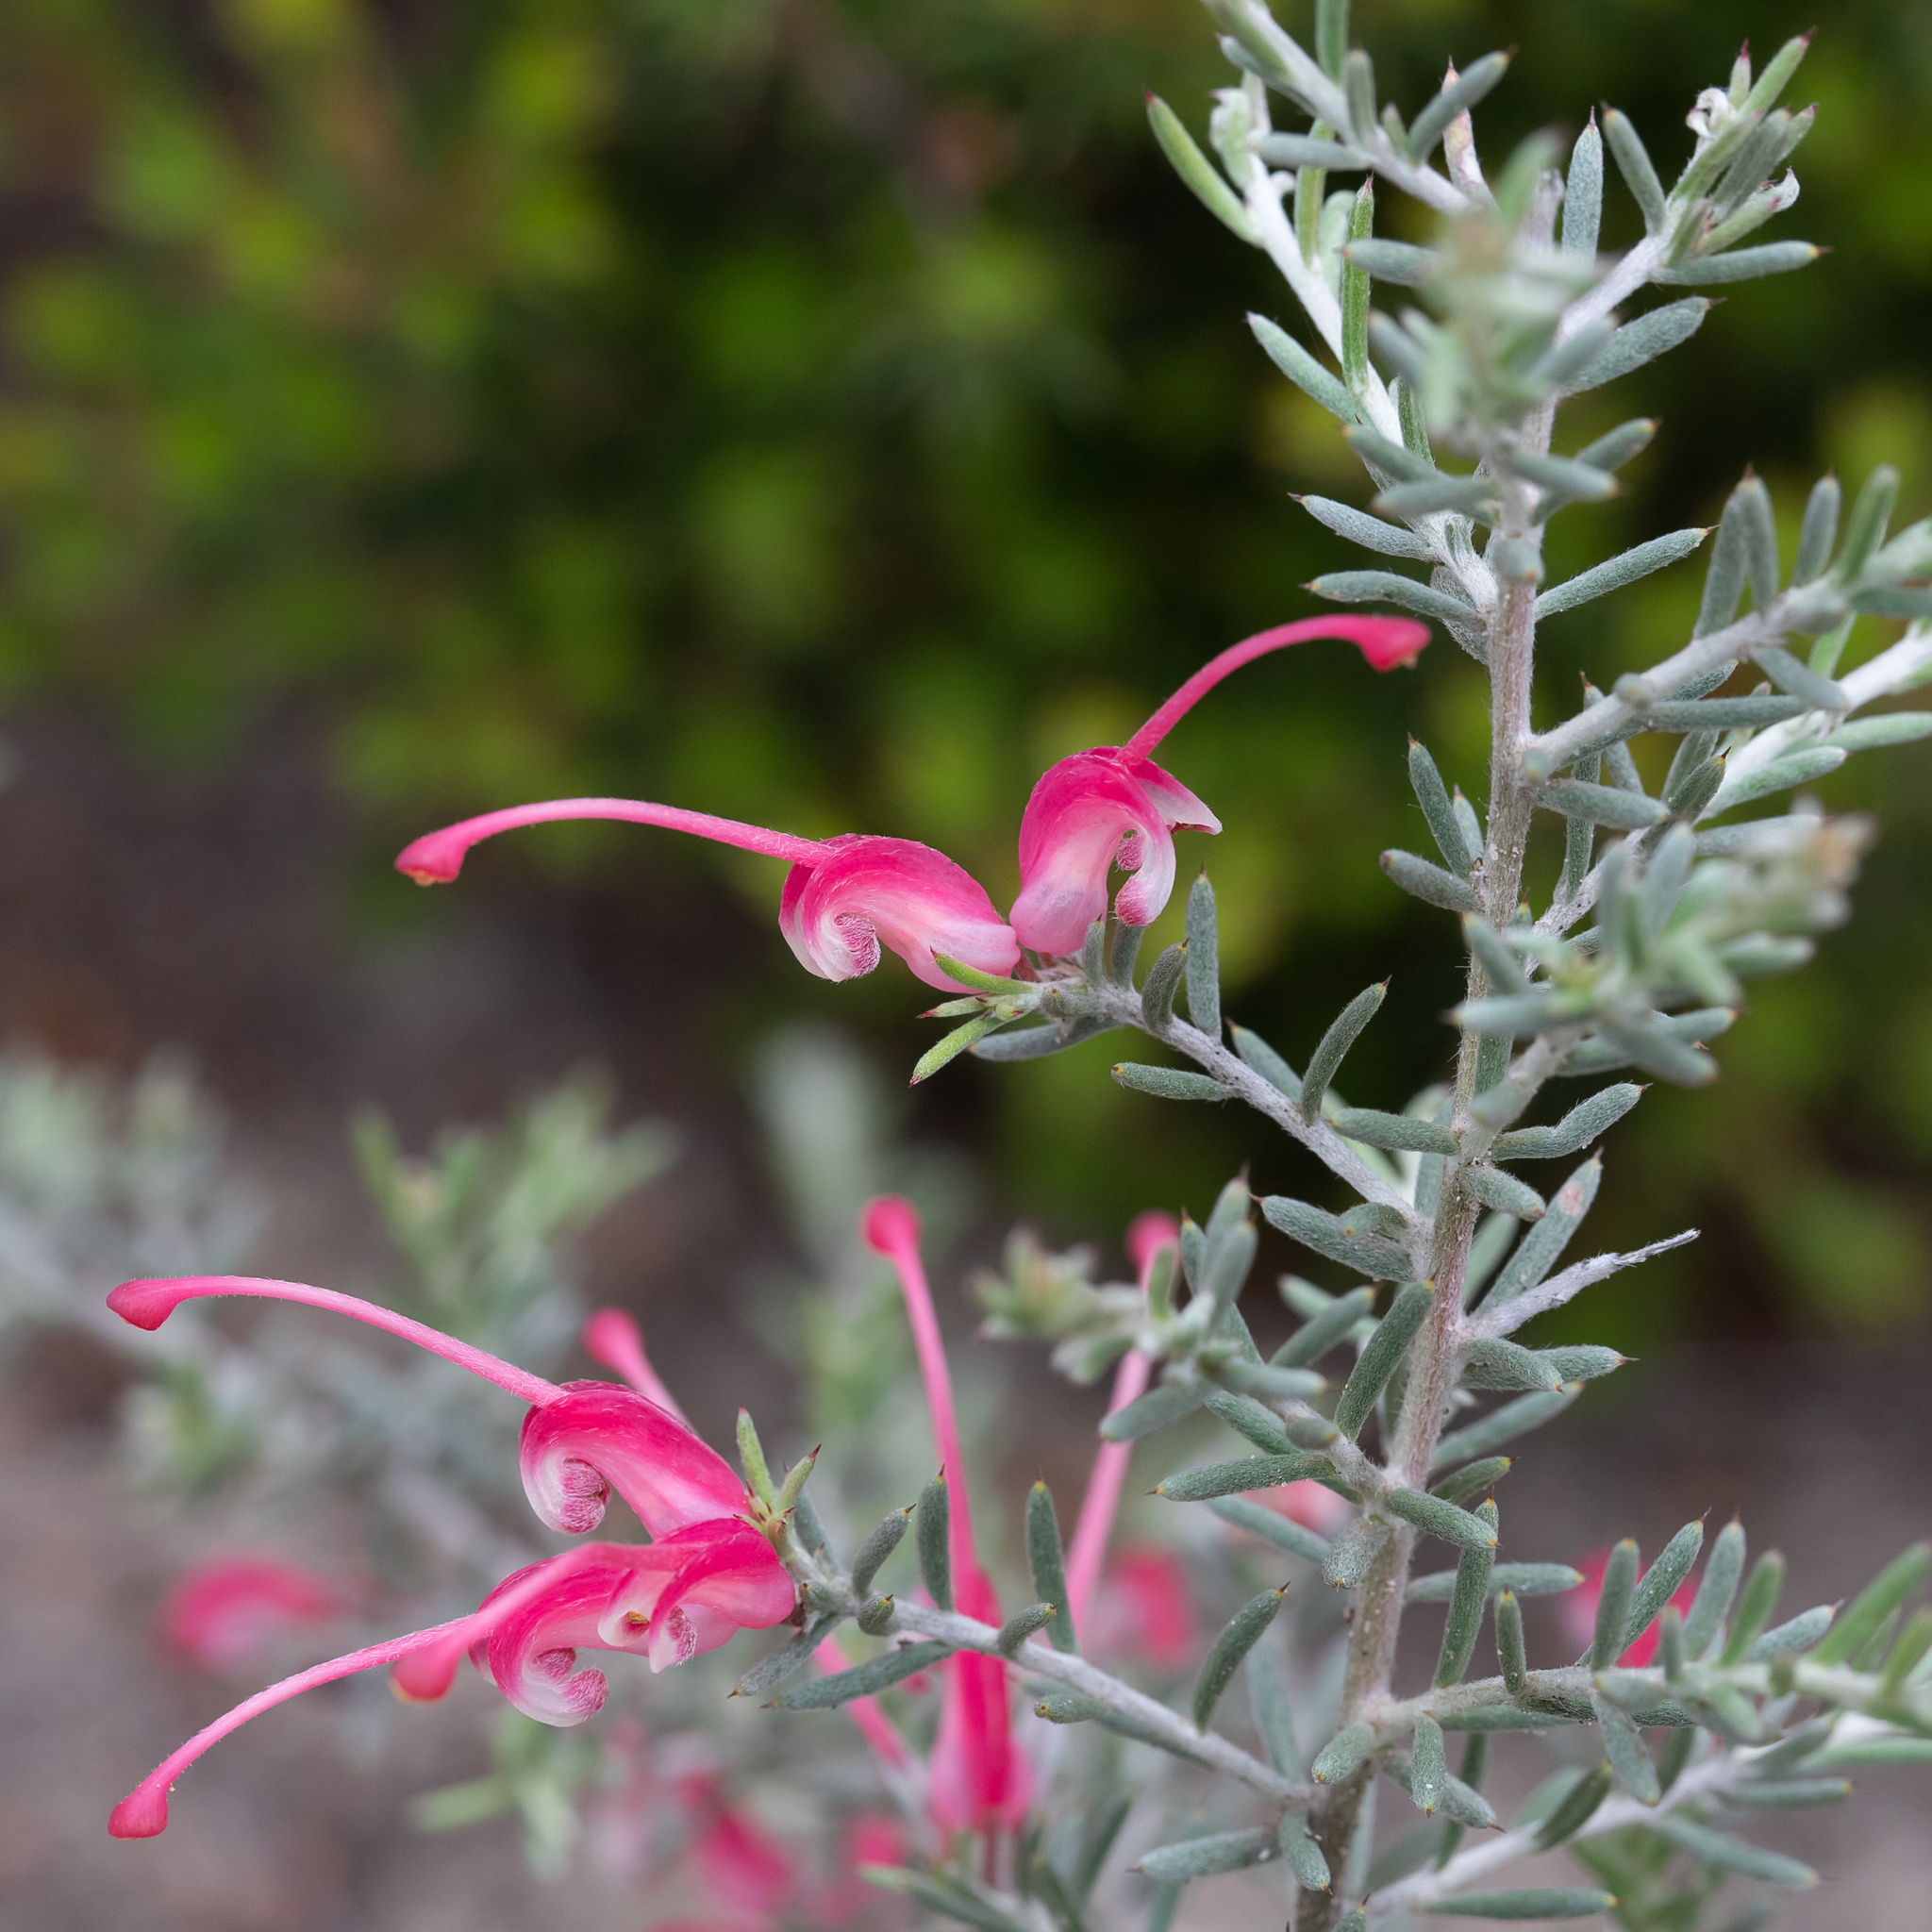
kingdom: Plantae
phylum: Tracheophyta
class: Magnoliopsida
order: Proteales
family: Proteaceae
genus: Grevillea
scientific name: Grevillea lavandulacea
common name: Lavender grevillea
